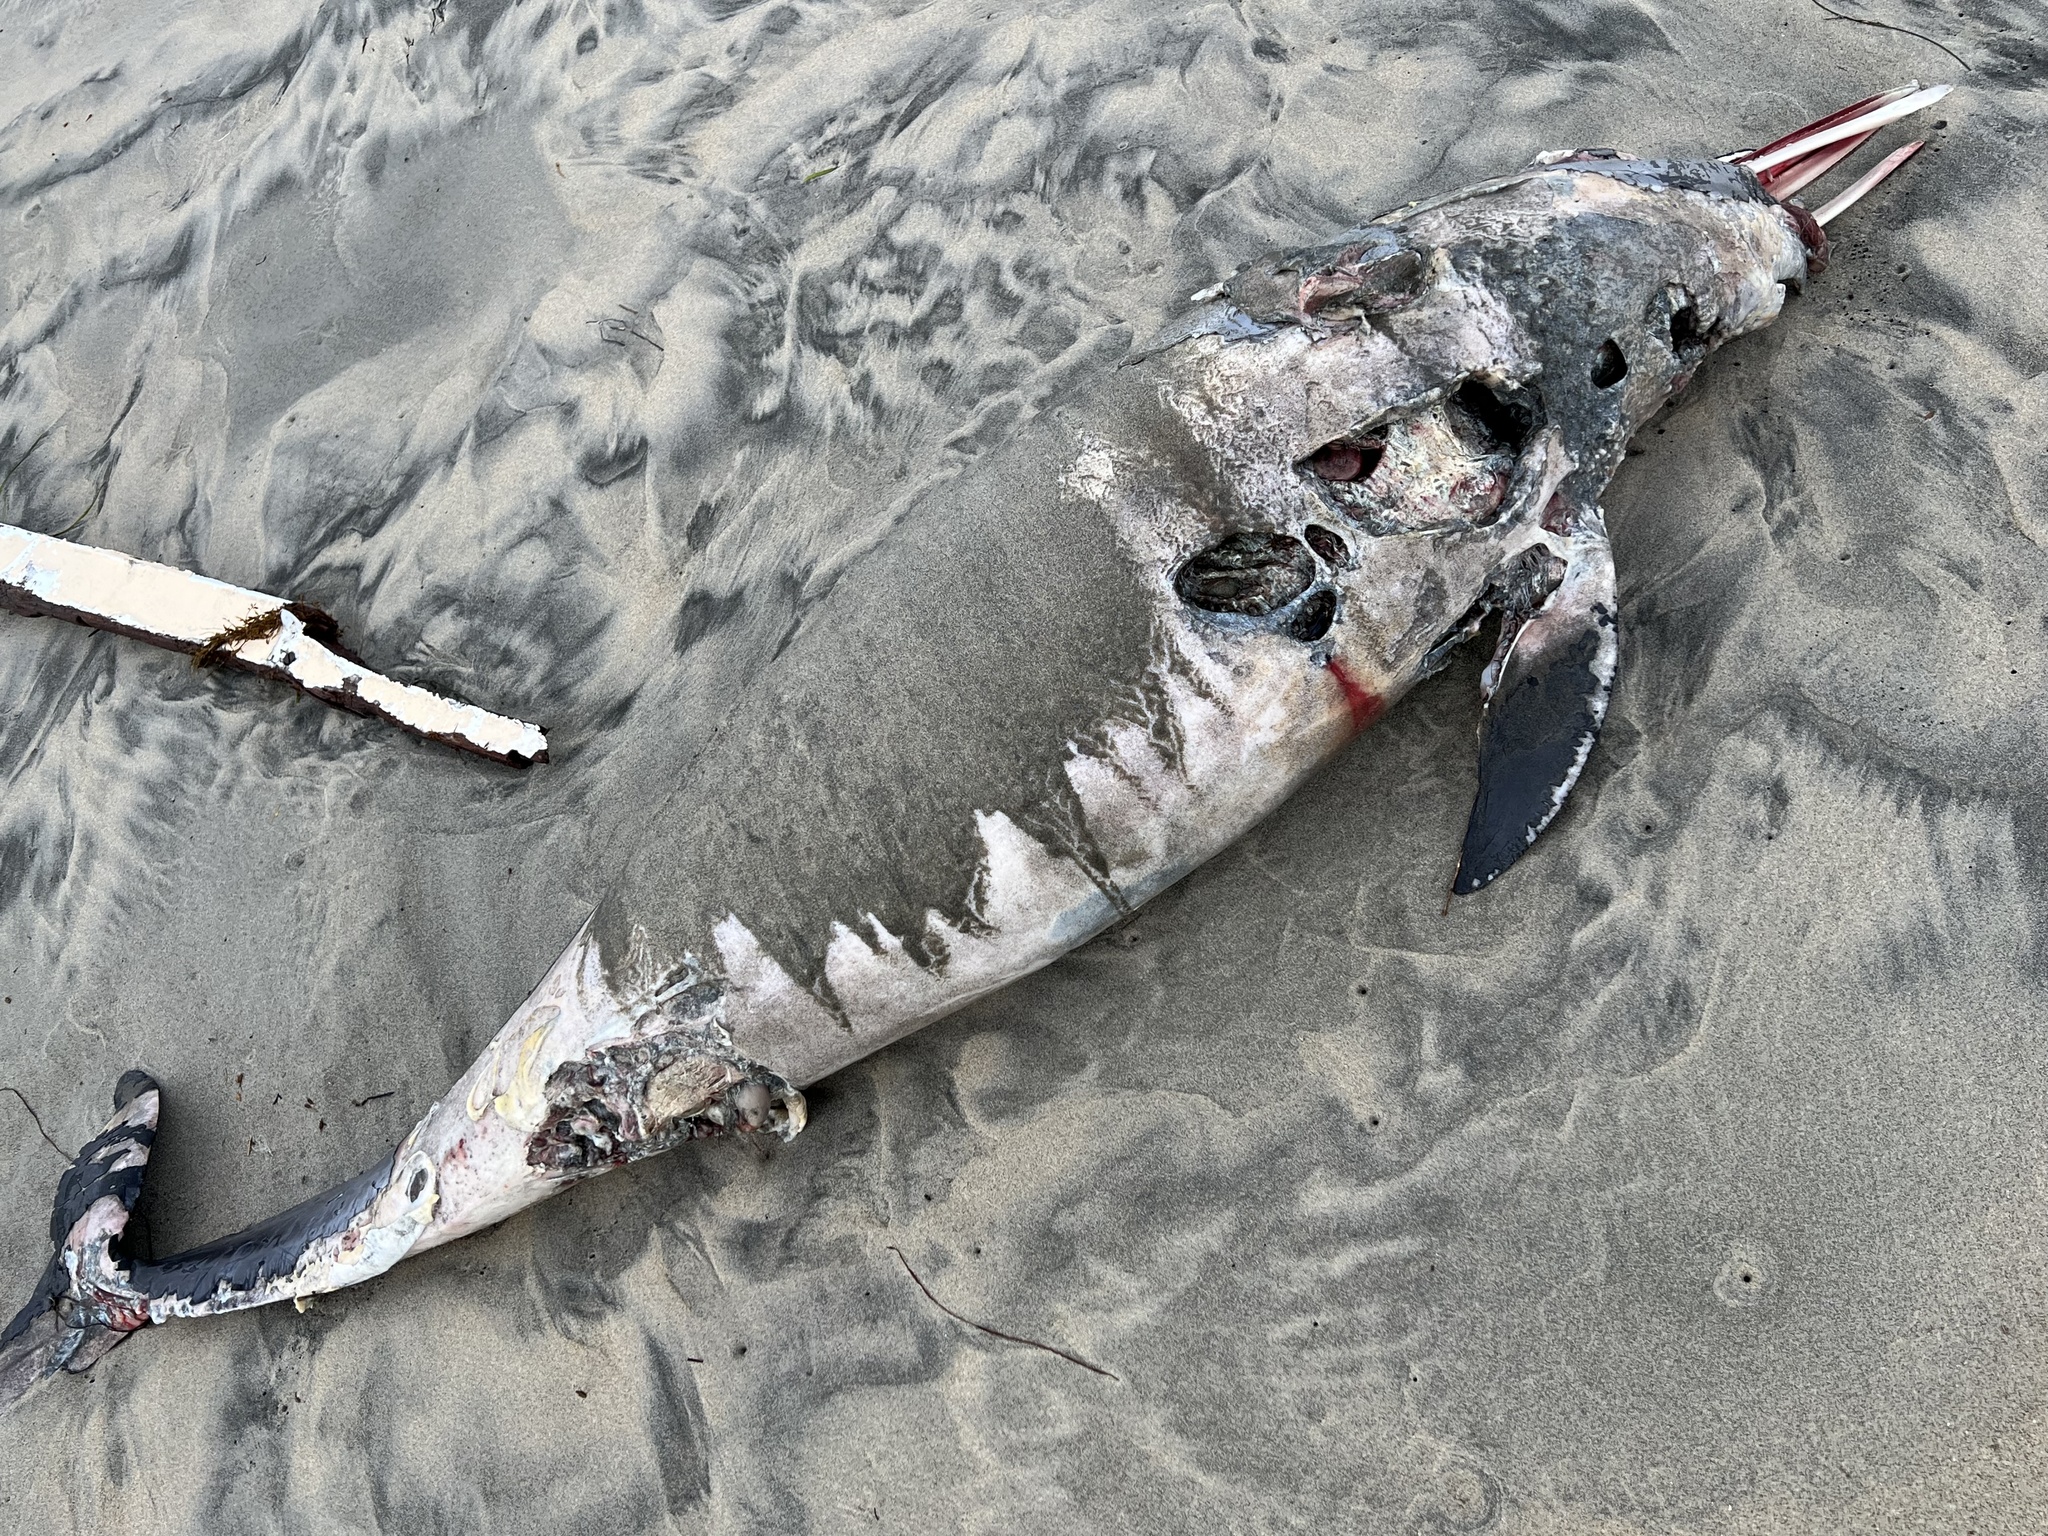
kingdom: Animalia
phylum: Chordata
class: Mammalia
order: Cetacea
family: Delphinidae
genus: Delphinus
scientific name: Delphinus delphis
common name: Common dolphin
